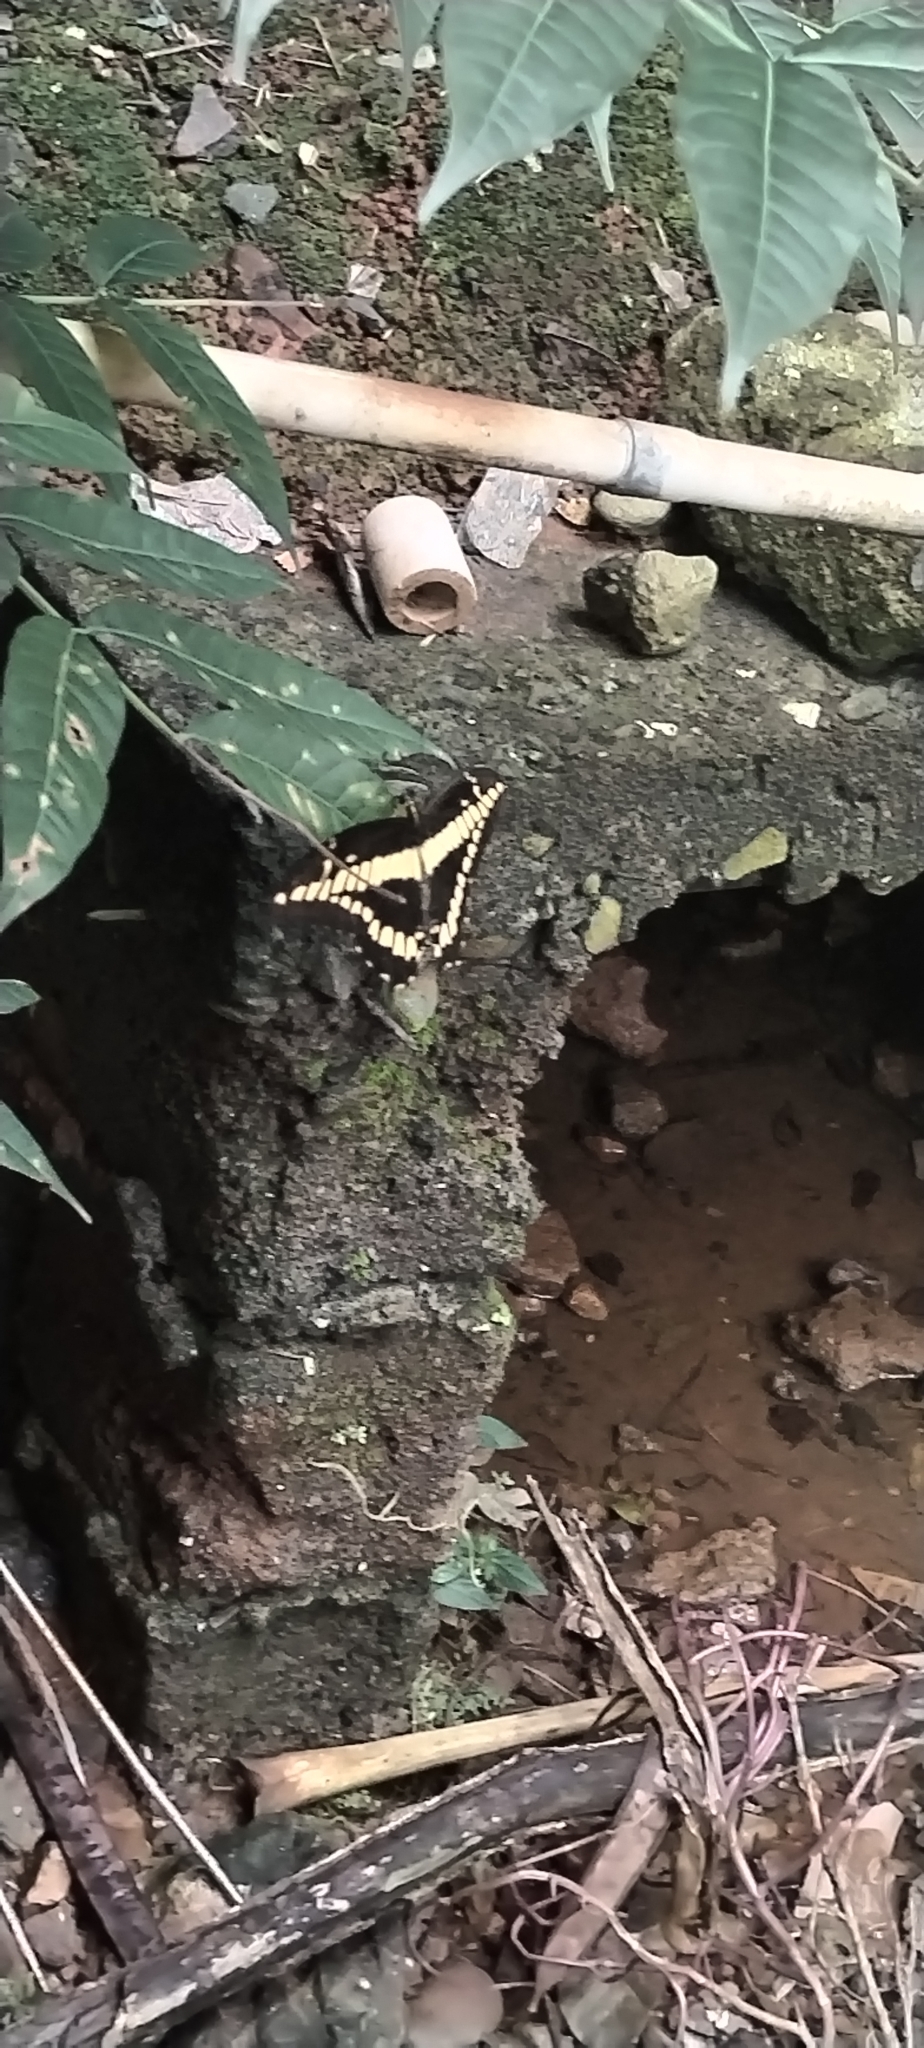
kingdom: Animalia
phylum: Arthropoda
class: Insecta
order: Lepidoptera
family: Papilionidae
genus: Papilio
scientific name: Papilio thoas
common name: King swallowtail
